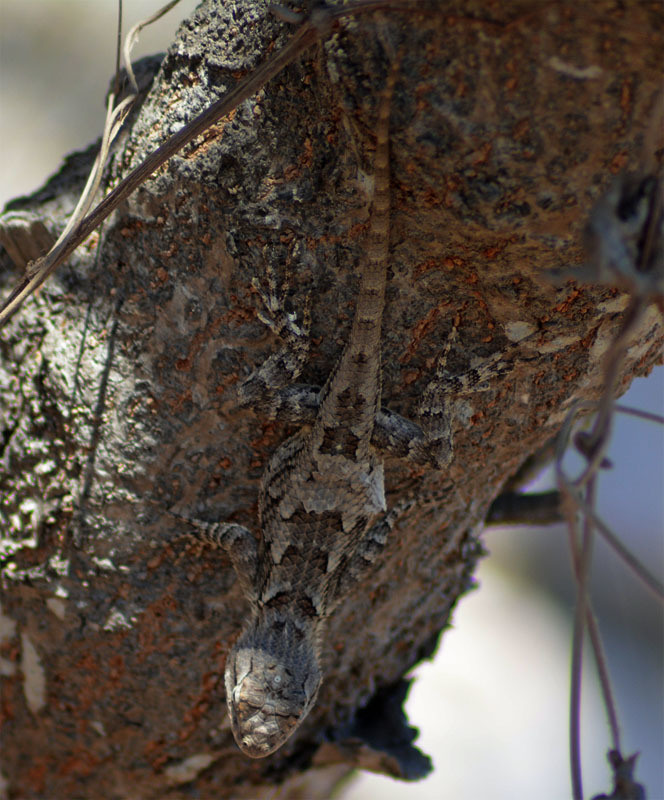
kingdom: Animalia
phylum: Chordata
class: Squamata
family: Phrynosomatidae
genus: Sceloporus
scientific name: Sceloporus clarkii
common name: Clark's spiny lizard
